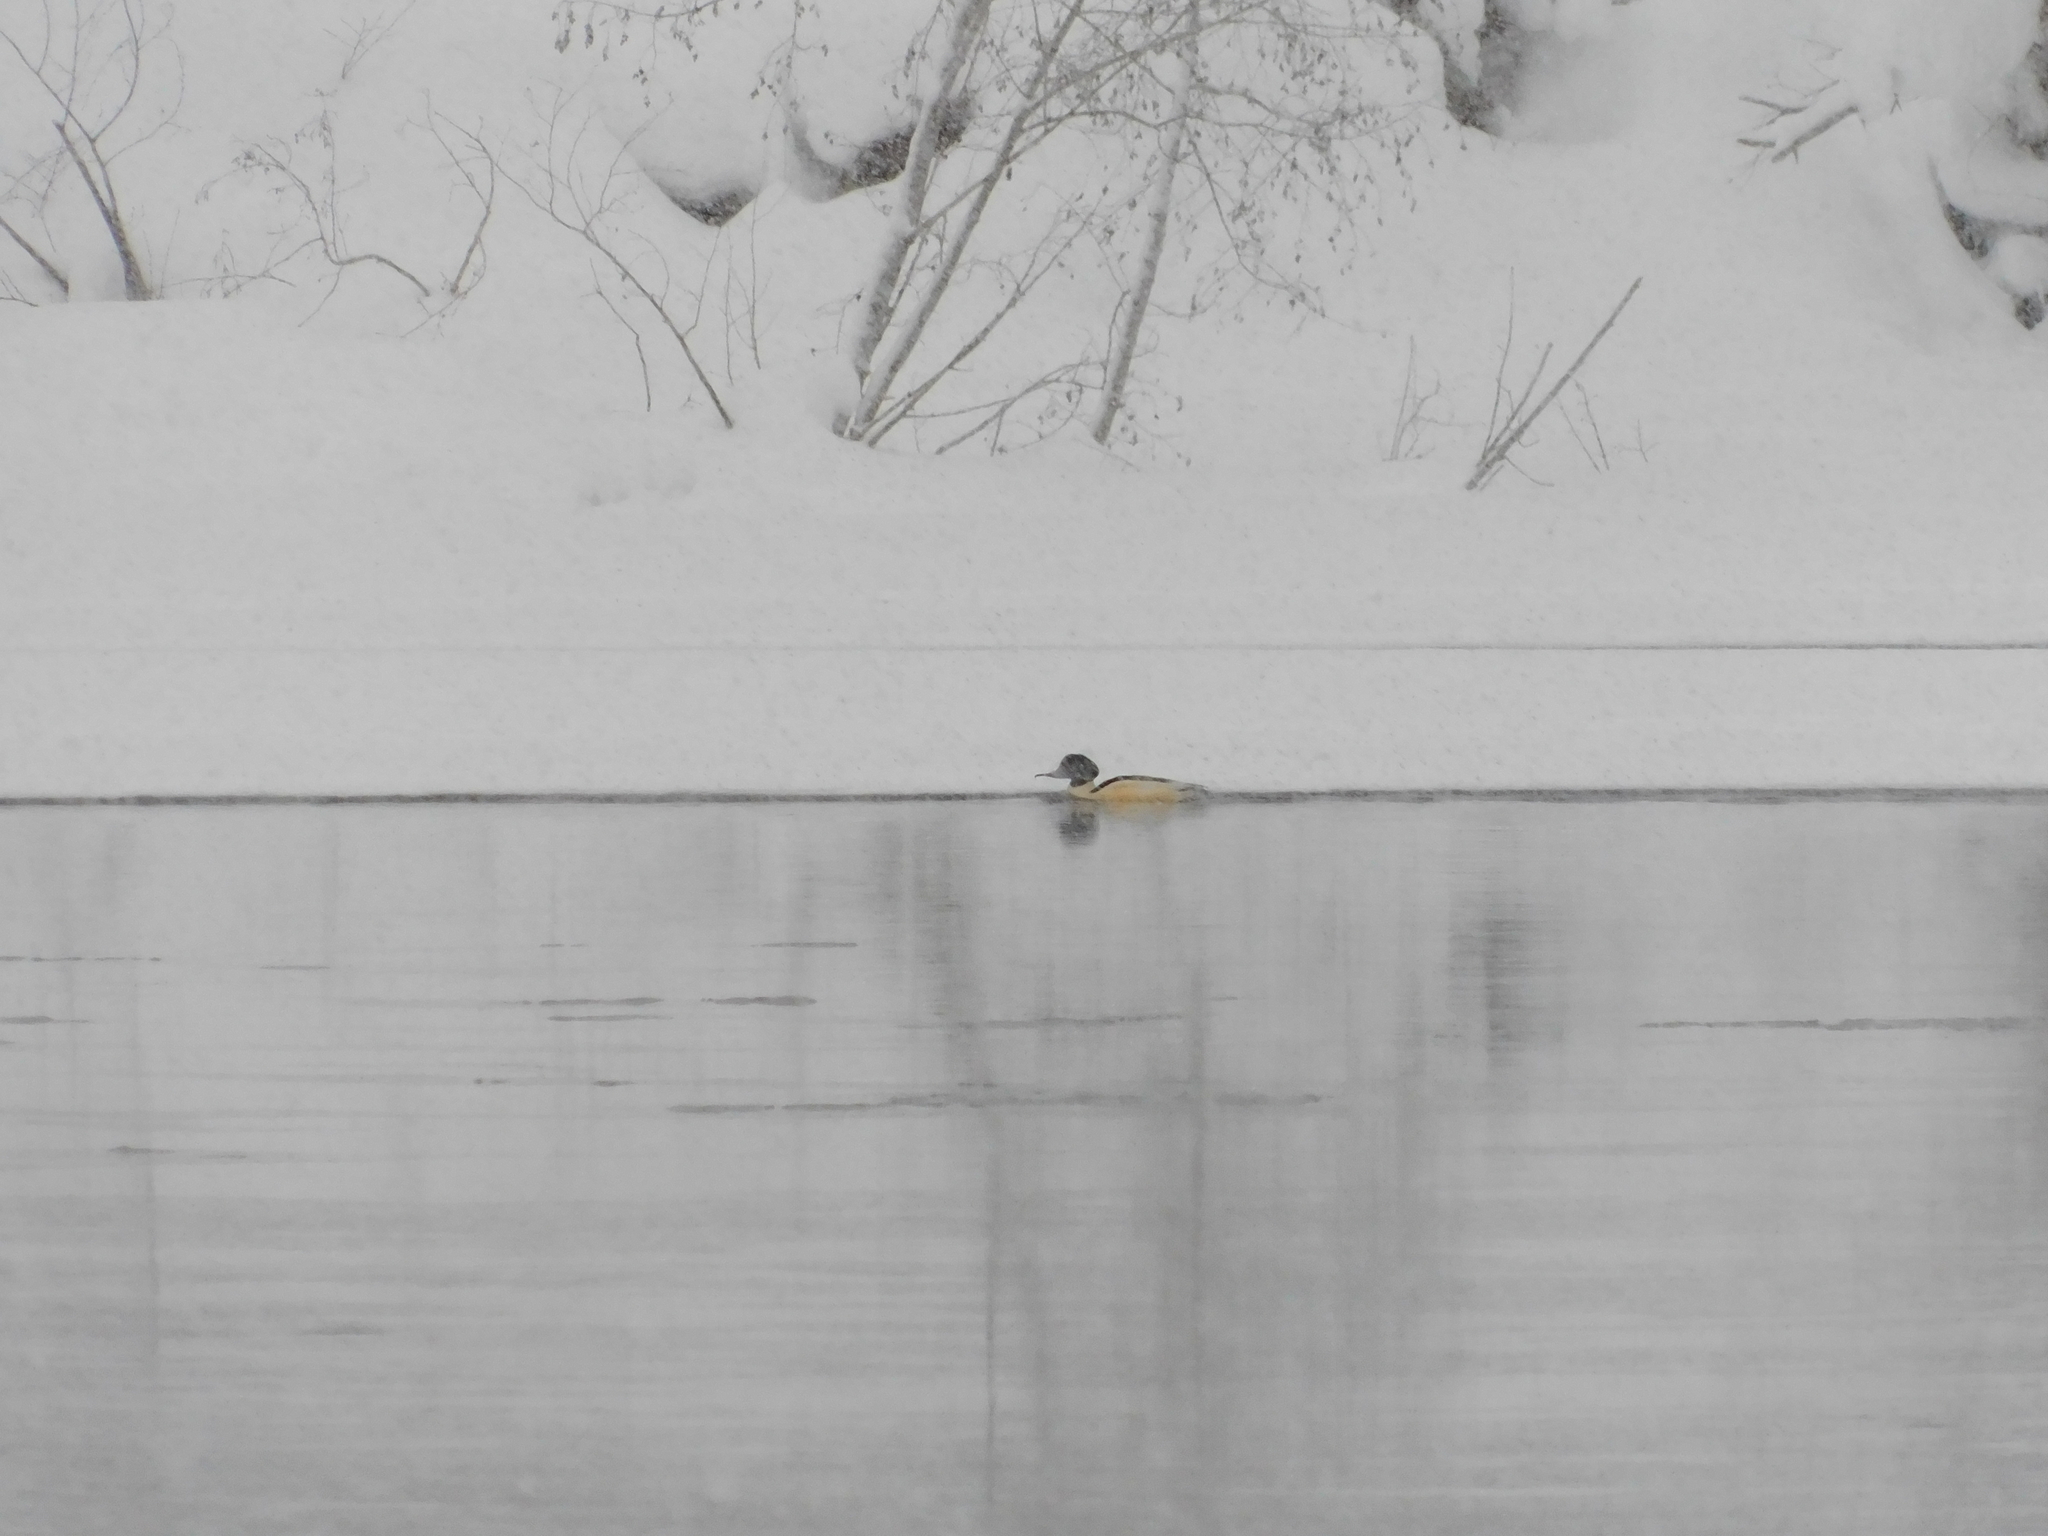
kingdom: Animalia
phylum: Chordata
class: Aves
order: Anseriformes
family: Anatidae
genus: Mergus
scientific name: Mergus merganser
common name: Common merganser
